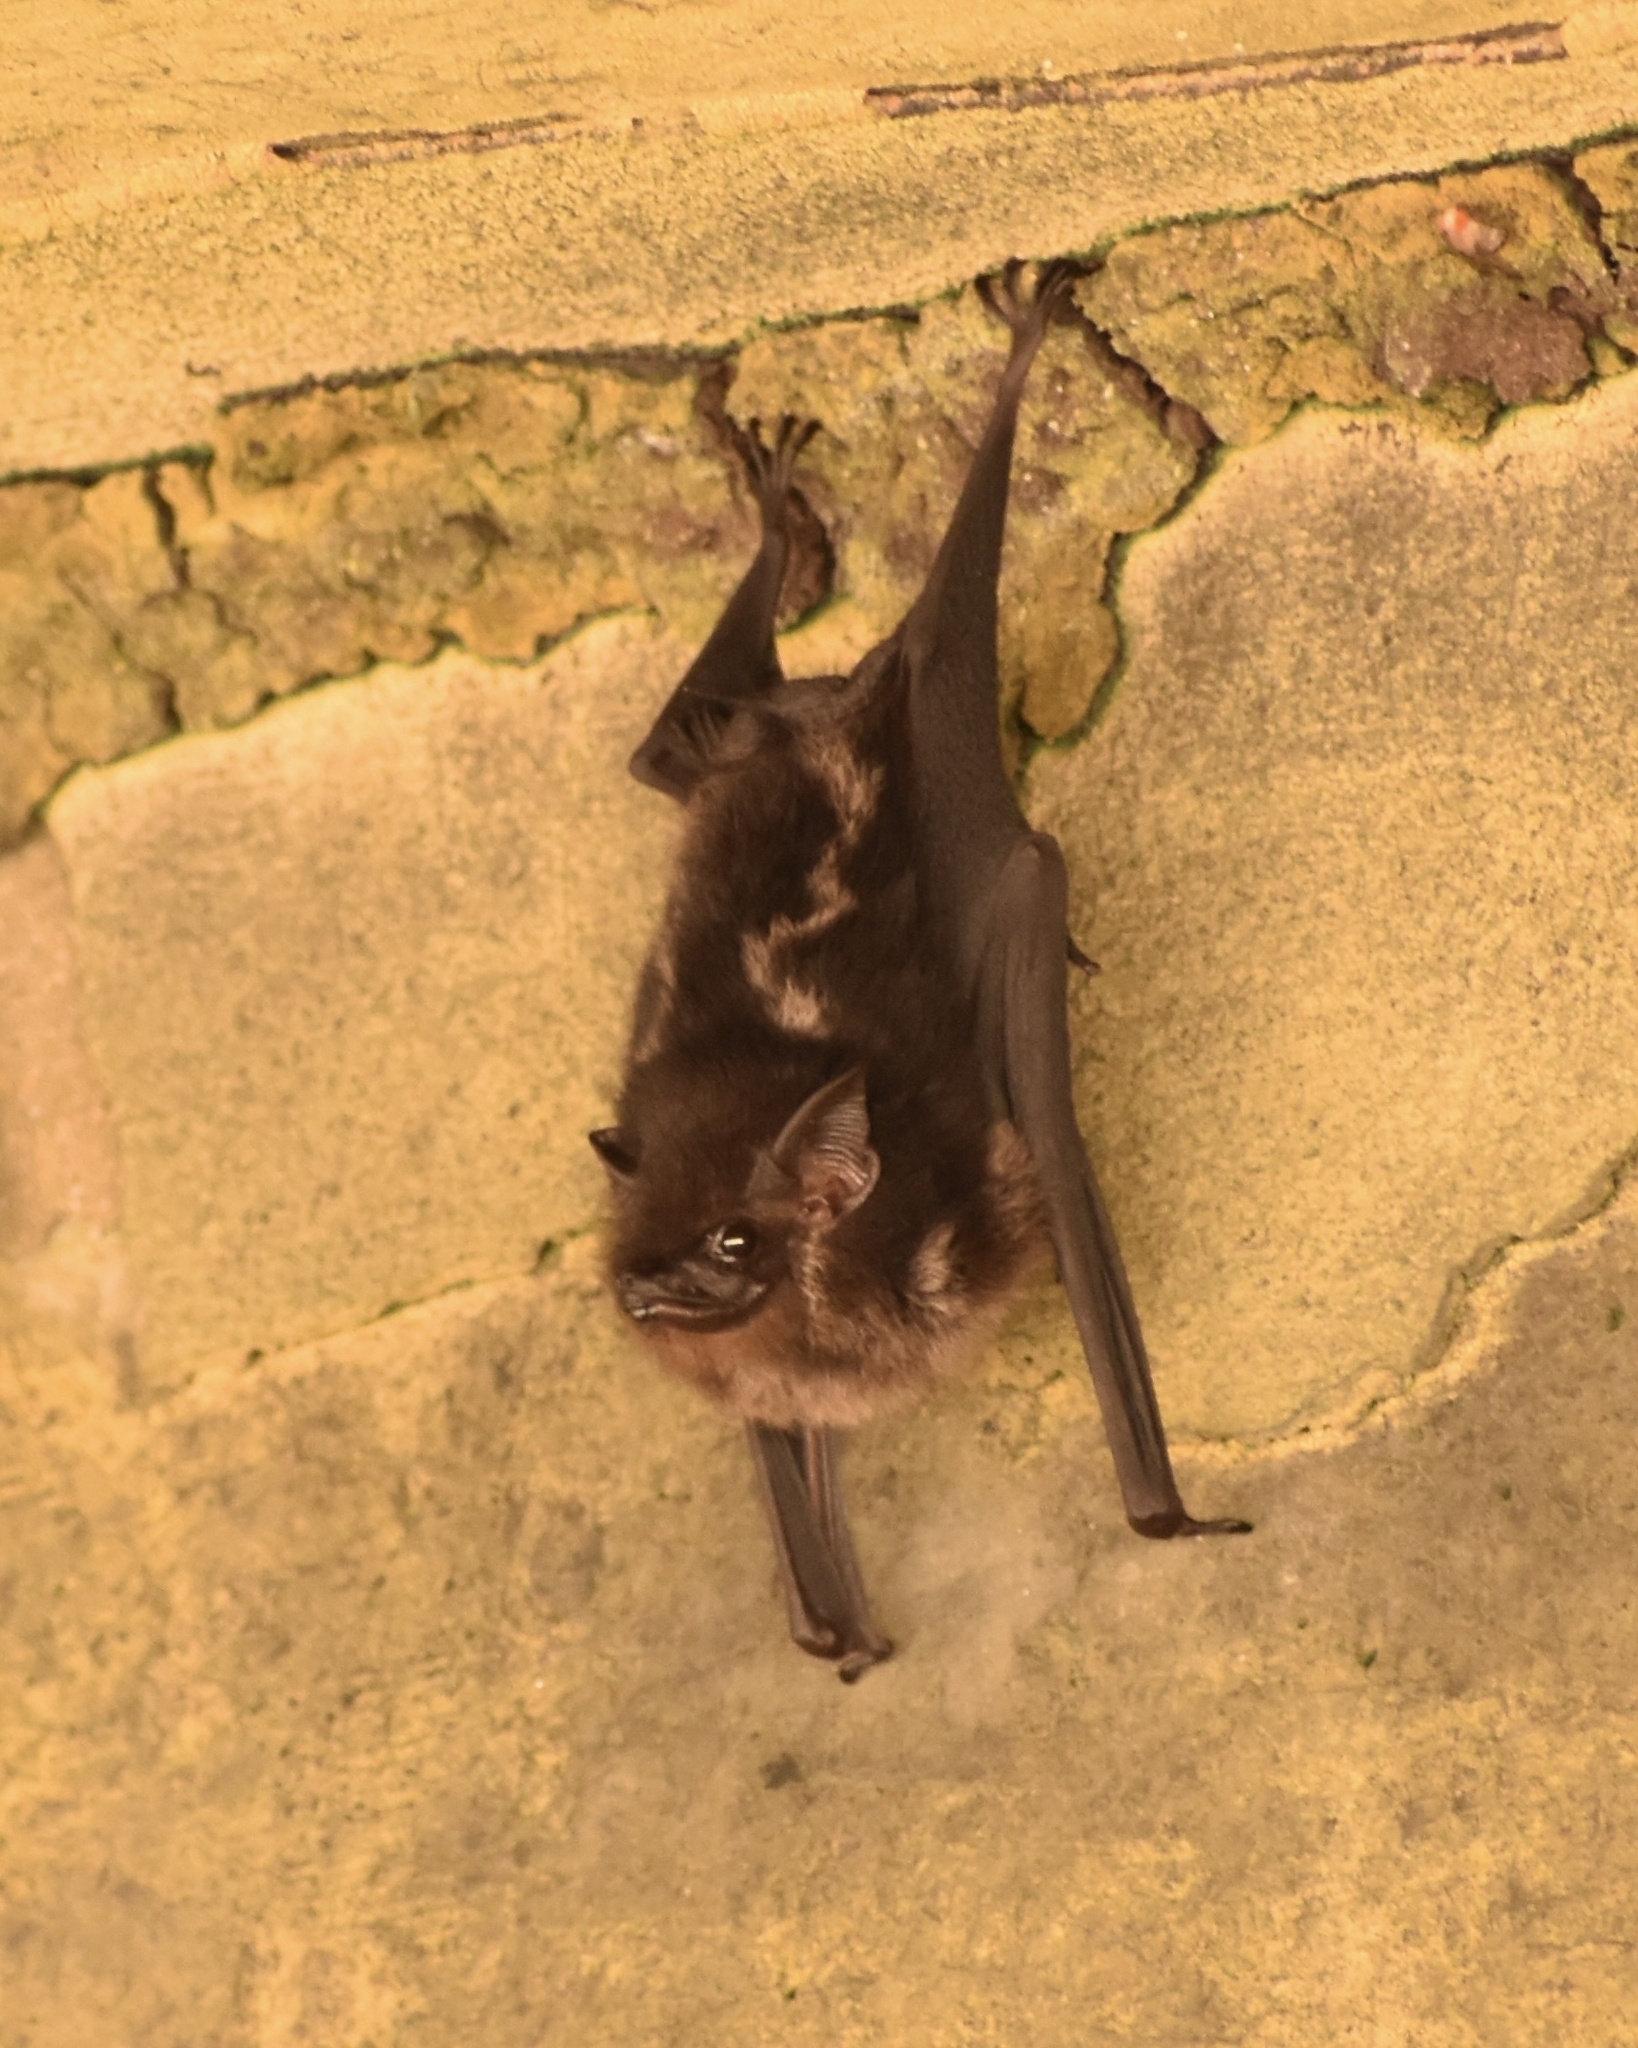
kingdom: Animalia
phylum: Chordata
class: Mammalia
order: Chiroptera
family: Emballonuridae
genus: Saccopteryx
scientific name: Saccopteryx bilineata
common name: Greater sac-winged bat
